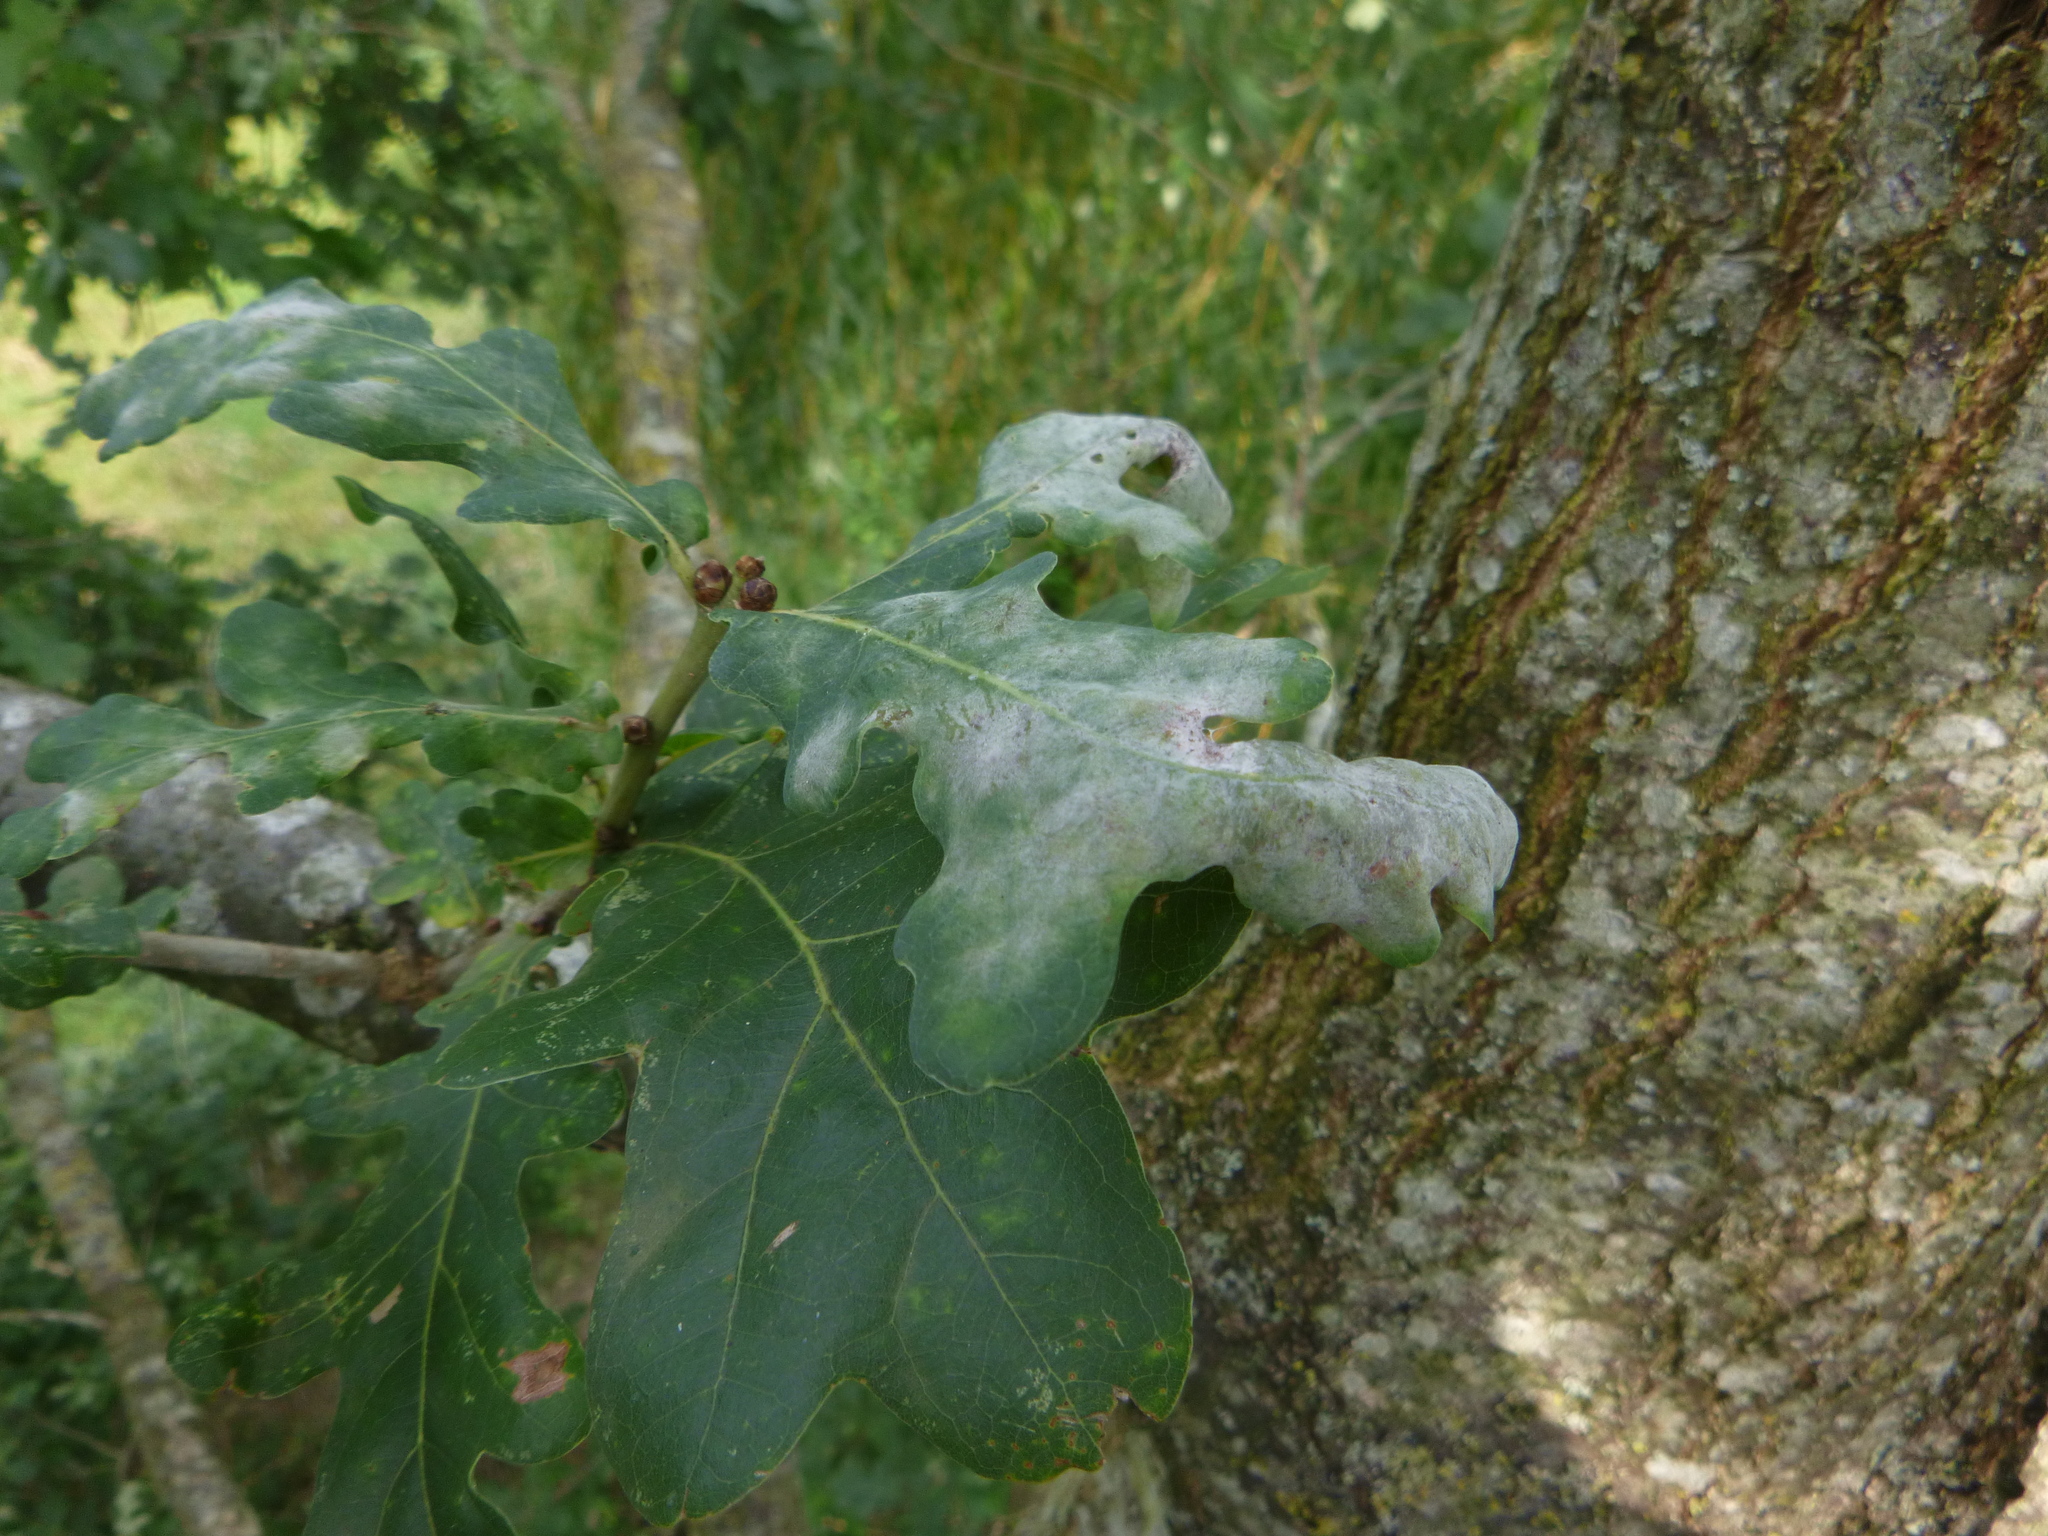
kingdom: Fungi
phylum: Ascomycota
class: Leotiomycetes
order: Helotiales
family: Erysiphaceae
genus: Erysiphe
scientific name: Erysiphe
